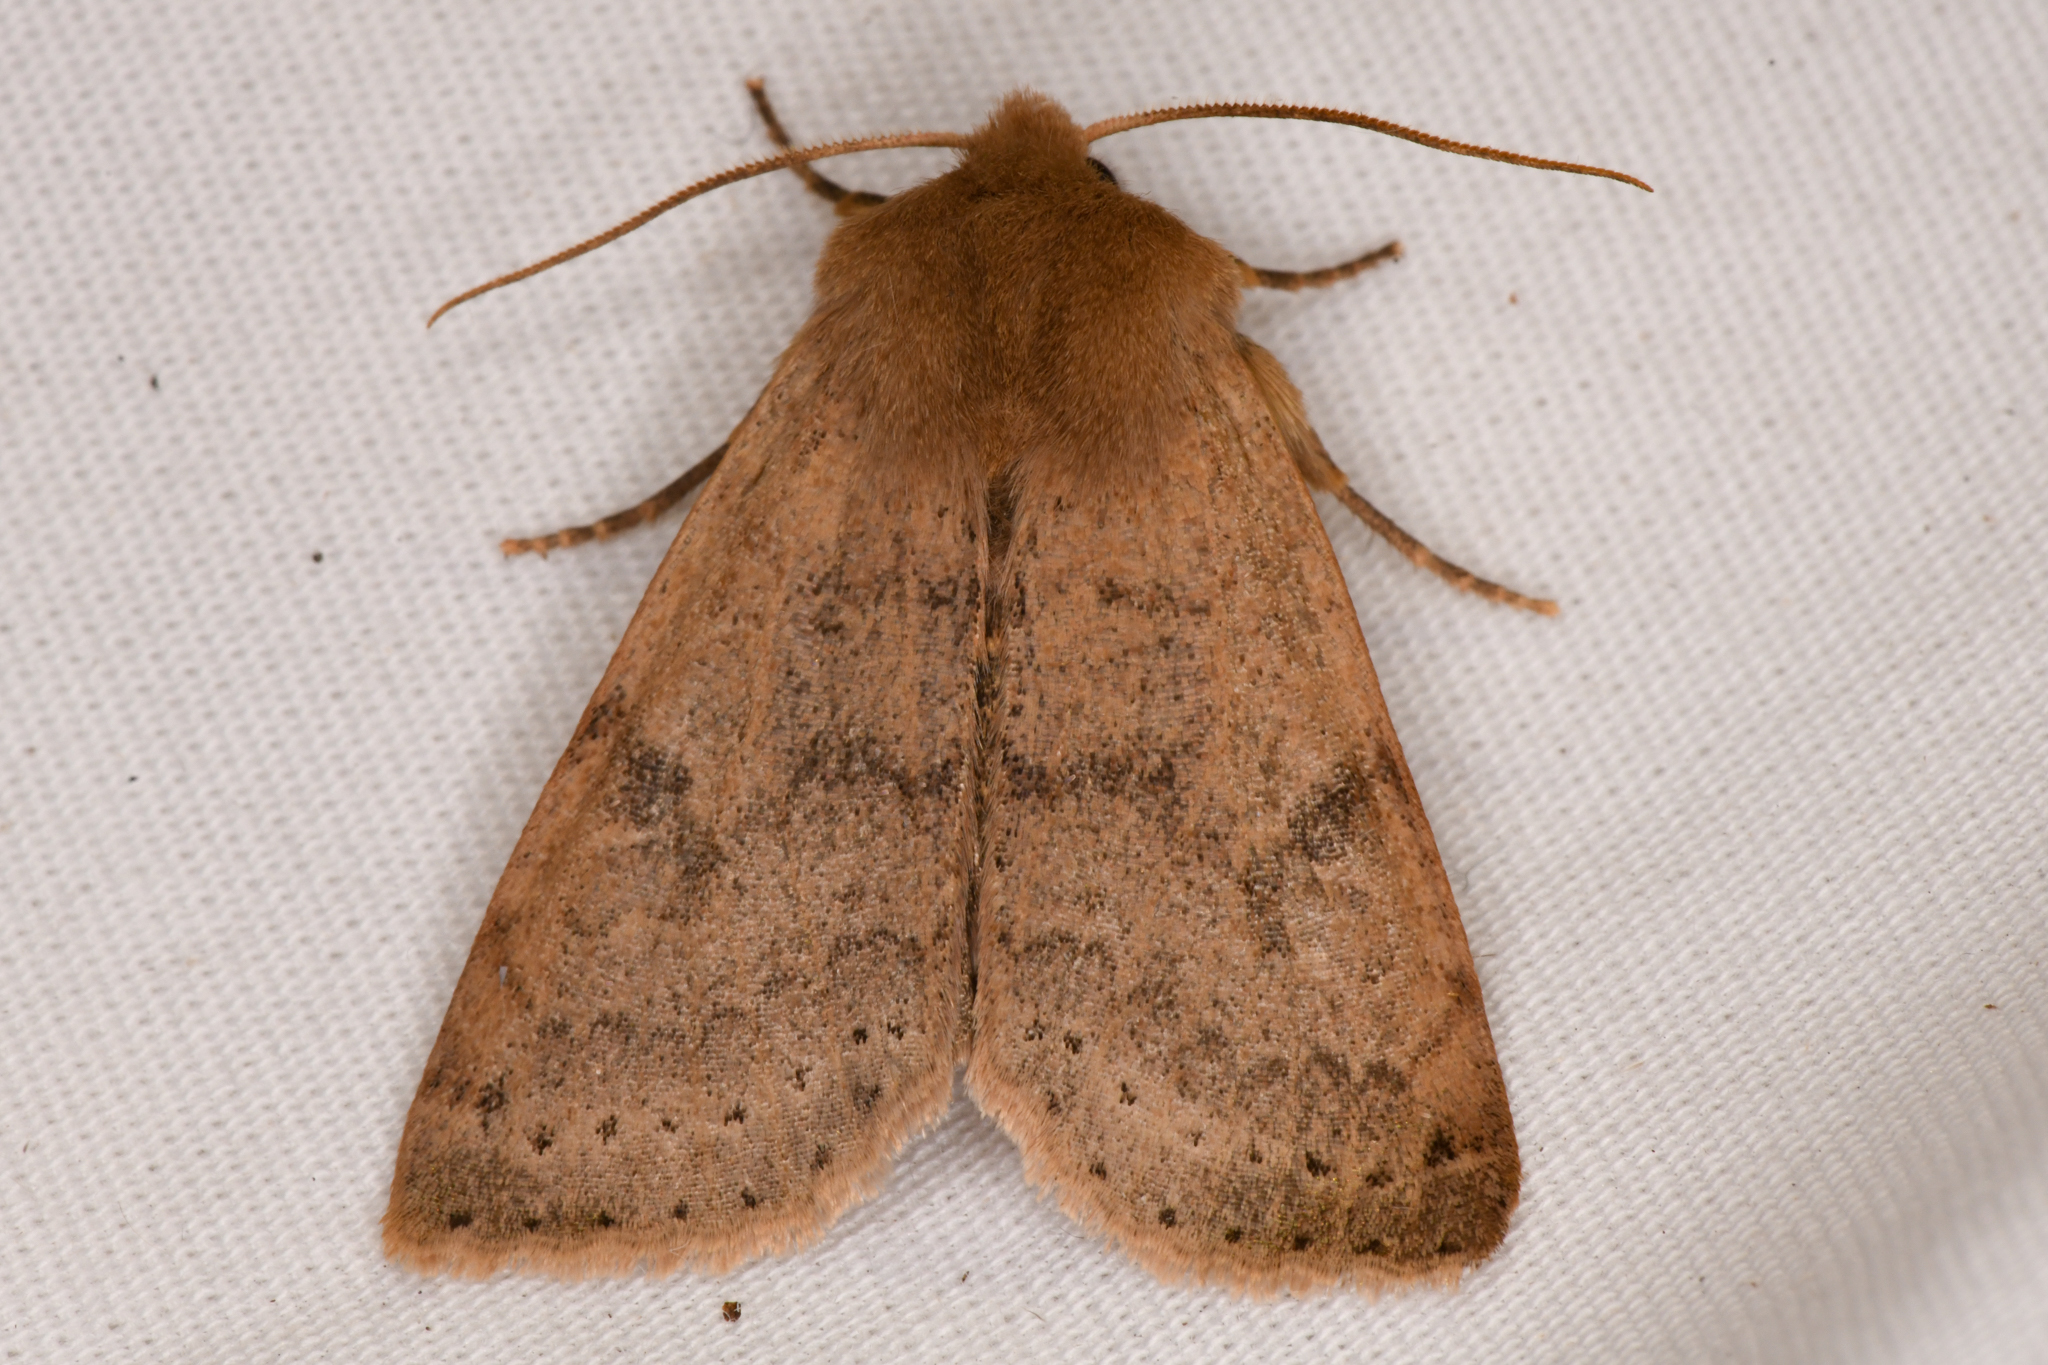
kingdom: Animalia
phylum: Arthropoda
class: Insecta
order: Lepidoptera
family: Noctuidae
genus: Orthosia
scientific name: Orthosia arthrolita
